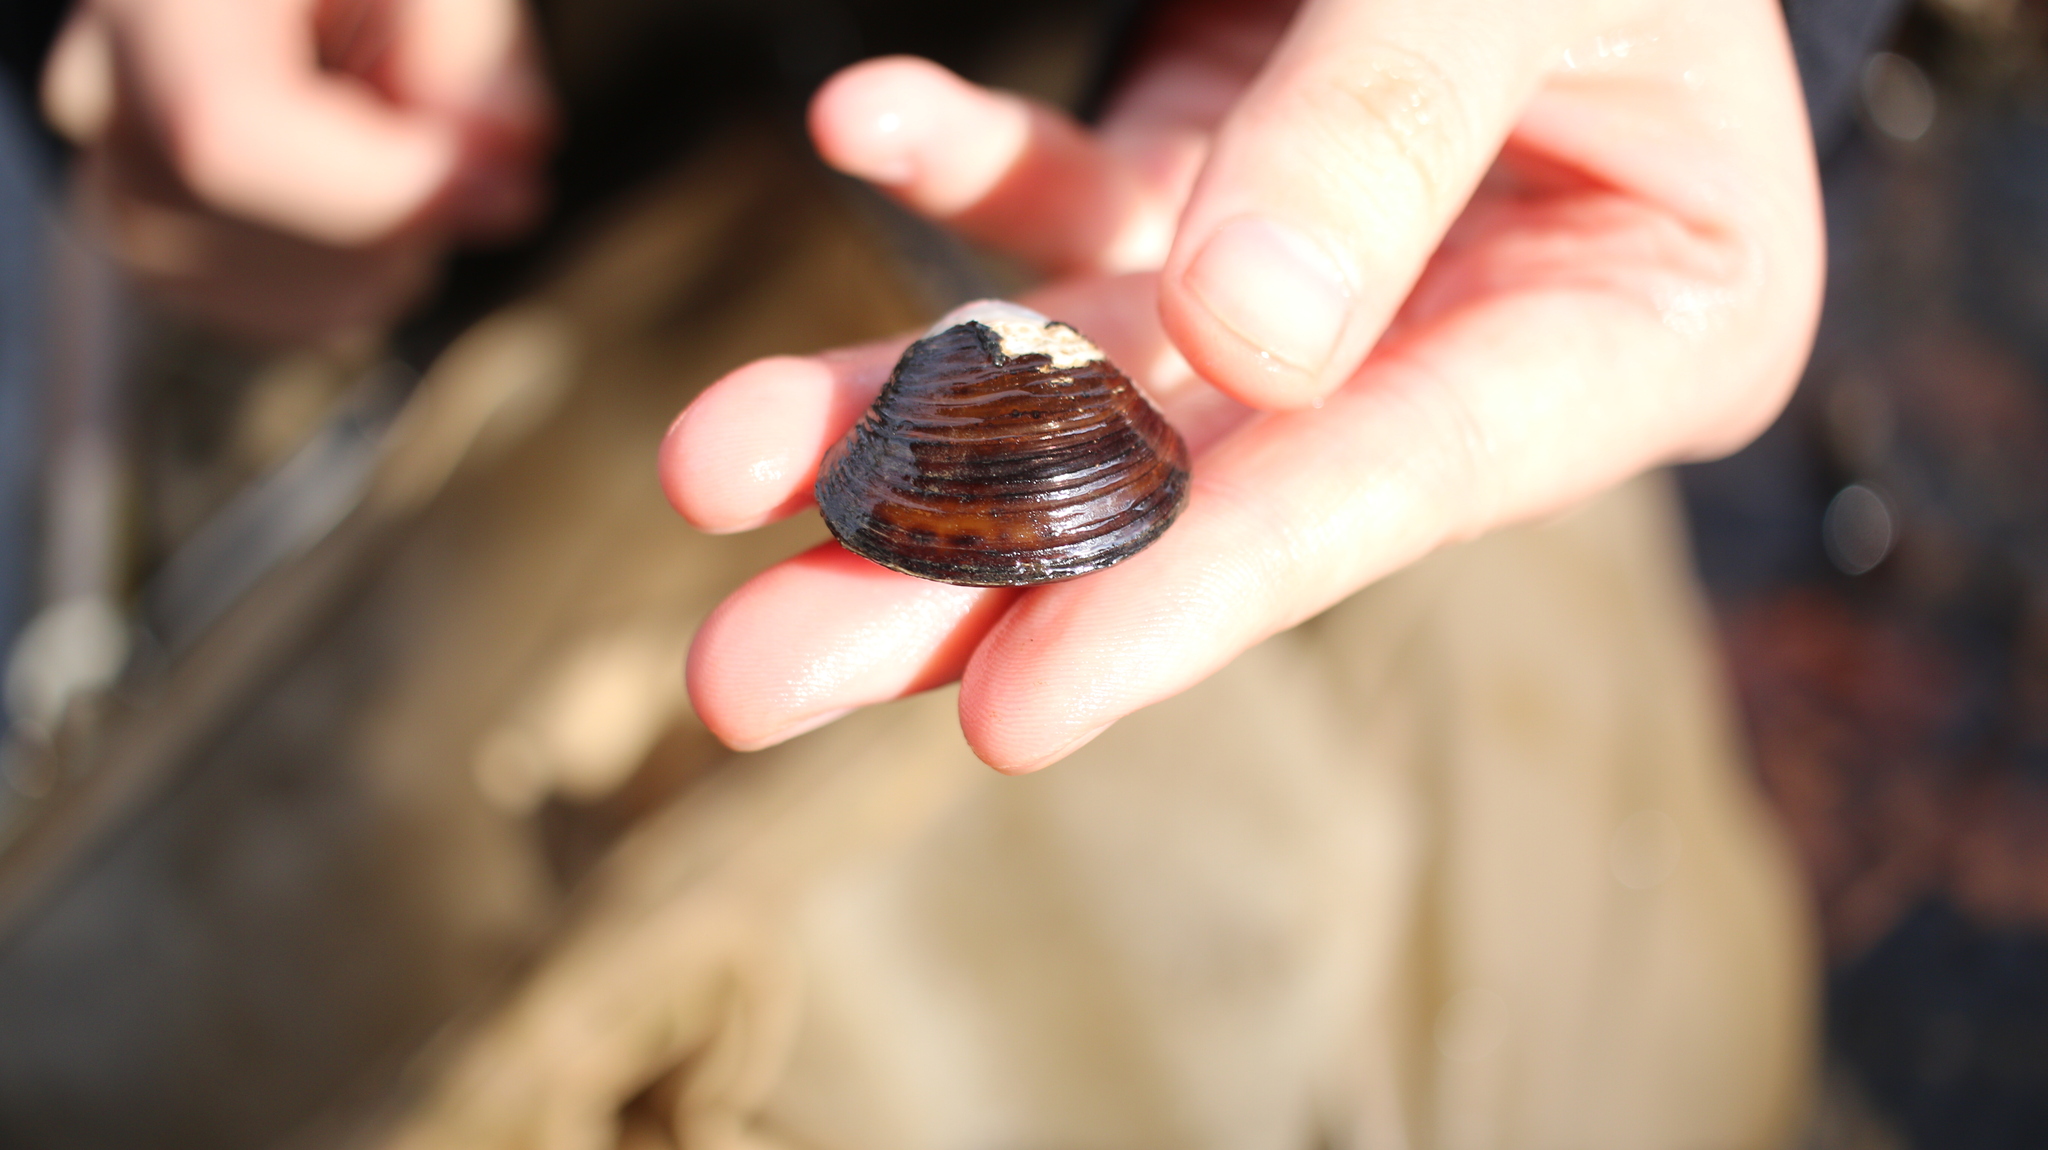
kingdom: Animalia
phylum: Mollusca
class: Bivalvia
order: Venerida
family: Cyrenidae
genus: Corbicula
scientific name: Corbicula fluminea
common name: Asian clam
